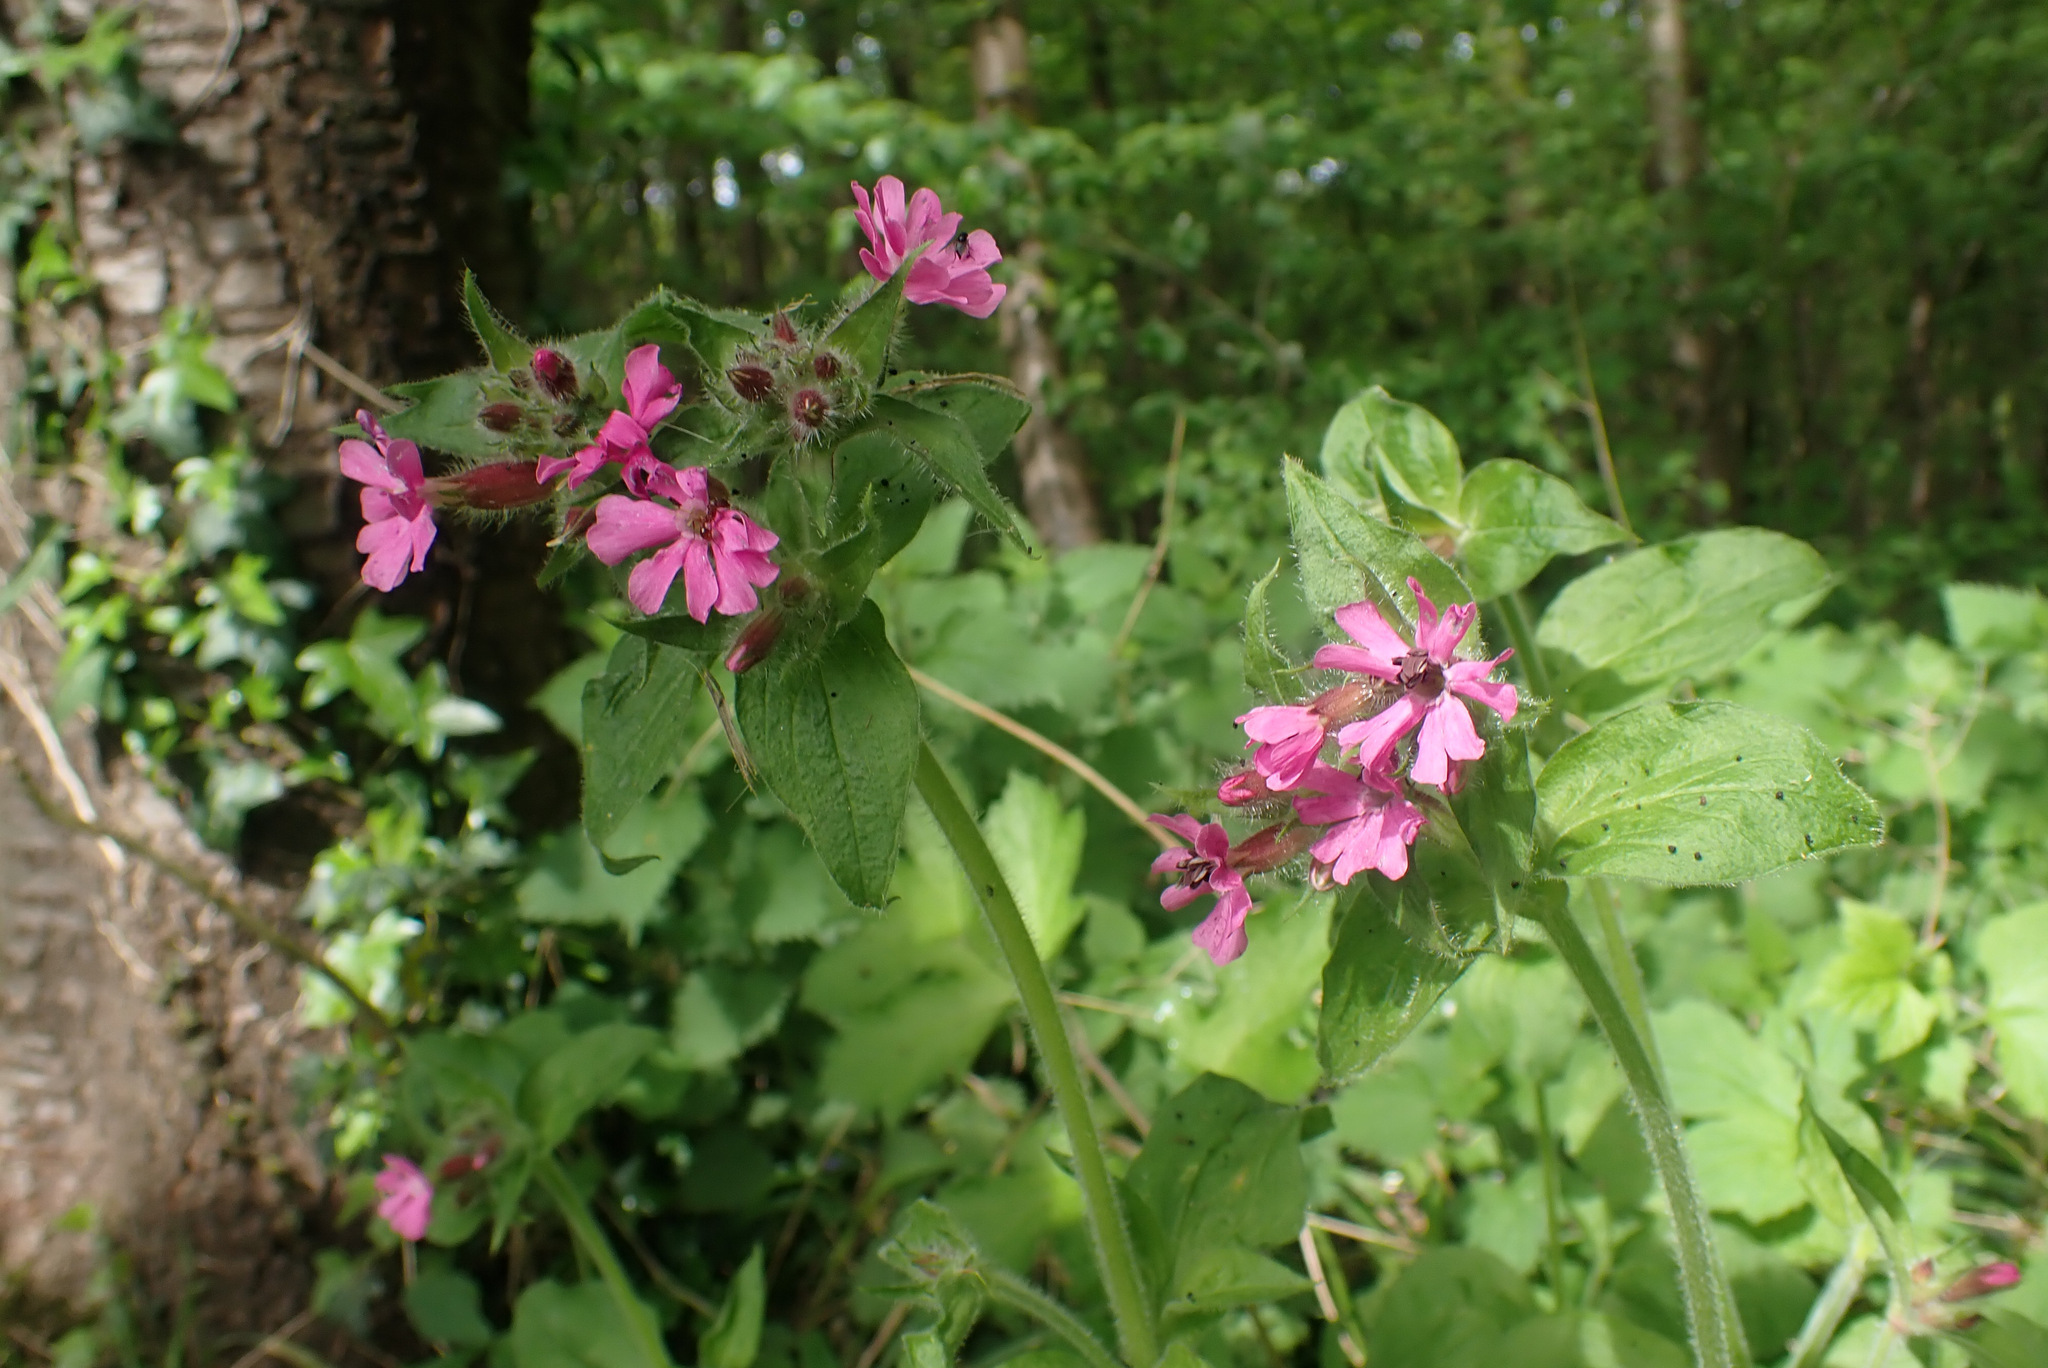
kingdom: Plantae
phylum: Tracheophyta
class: Magnoliopsida
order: Caryophyllales
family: Caryophyllaceae
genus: Silene
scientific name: Silene dioica
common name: Red campion
